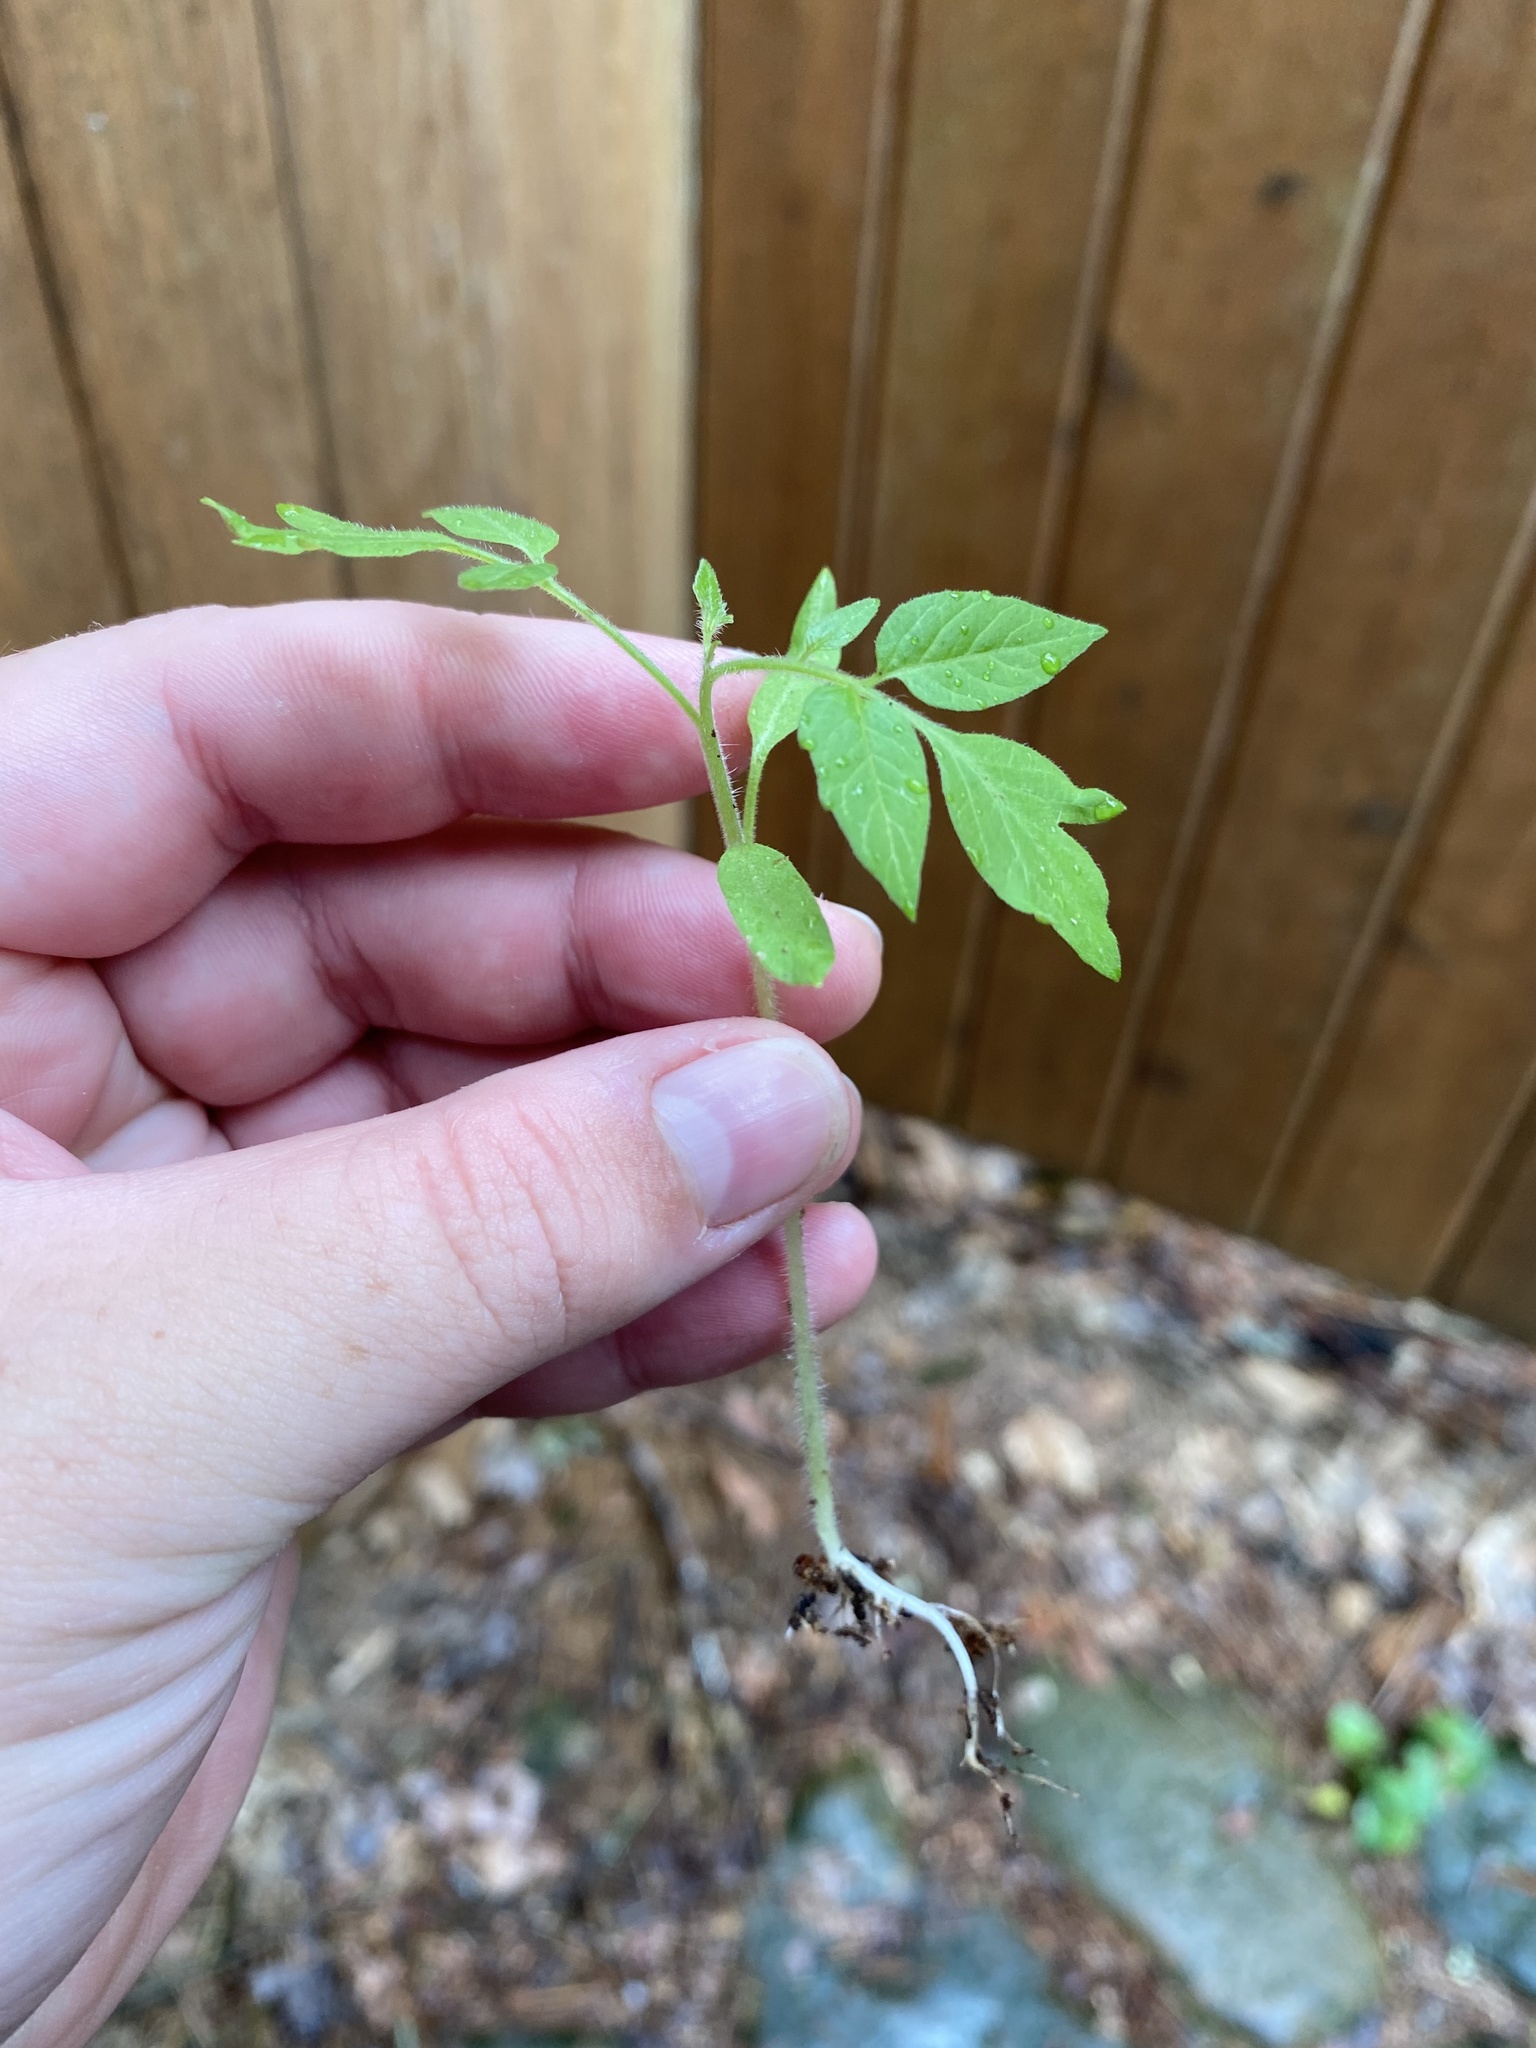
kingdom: Plantae
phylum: Tracheophyta
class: Magnoliopsida
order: Solanales
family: Solanaceae
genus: Solanum
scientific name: Solanum lycopersicum
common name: Garden tomato
